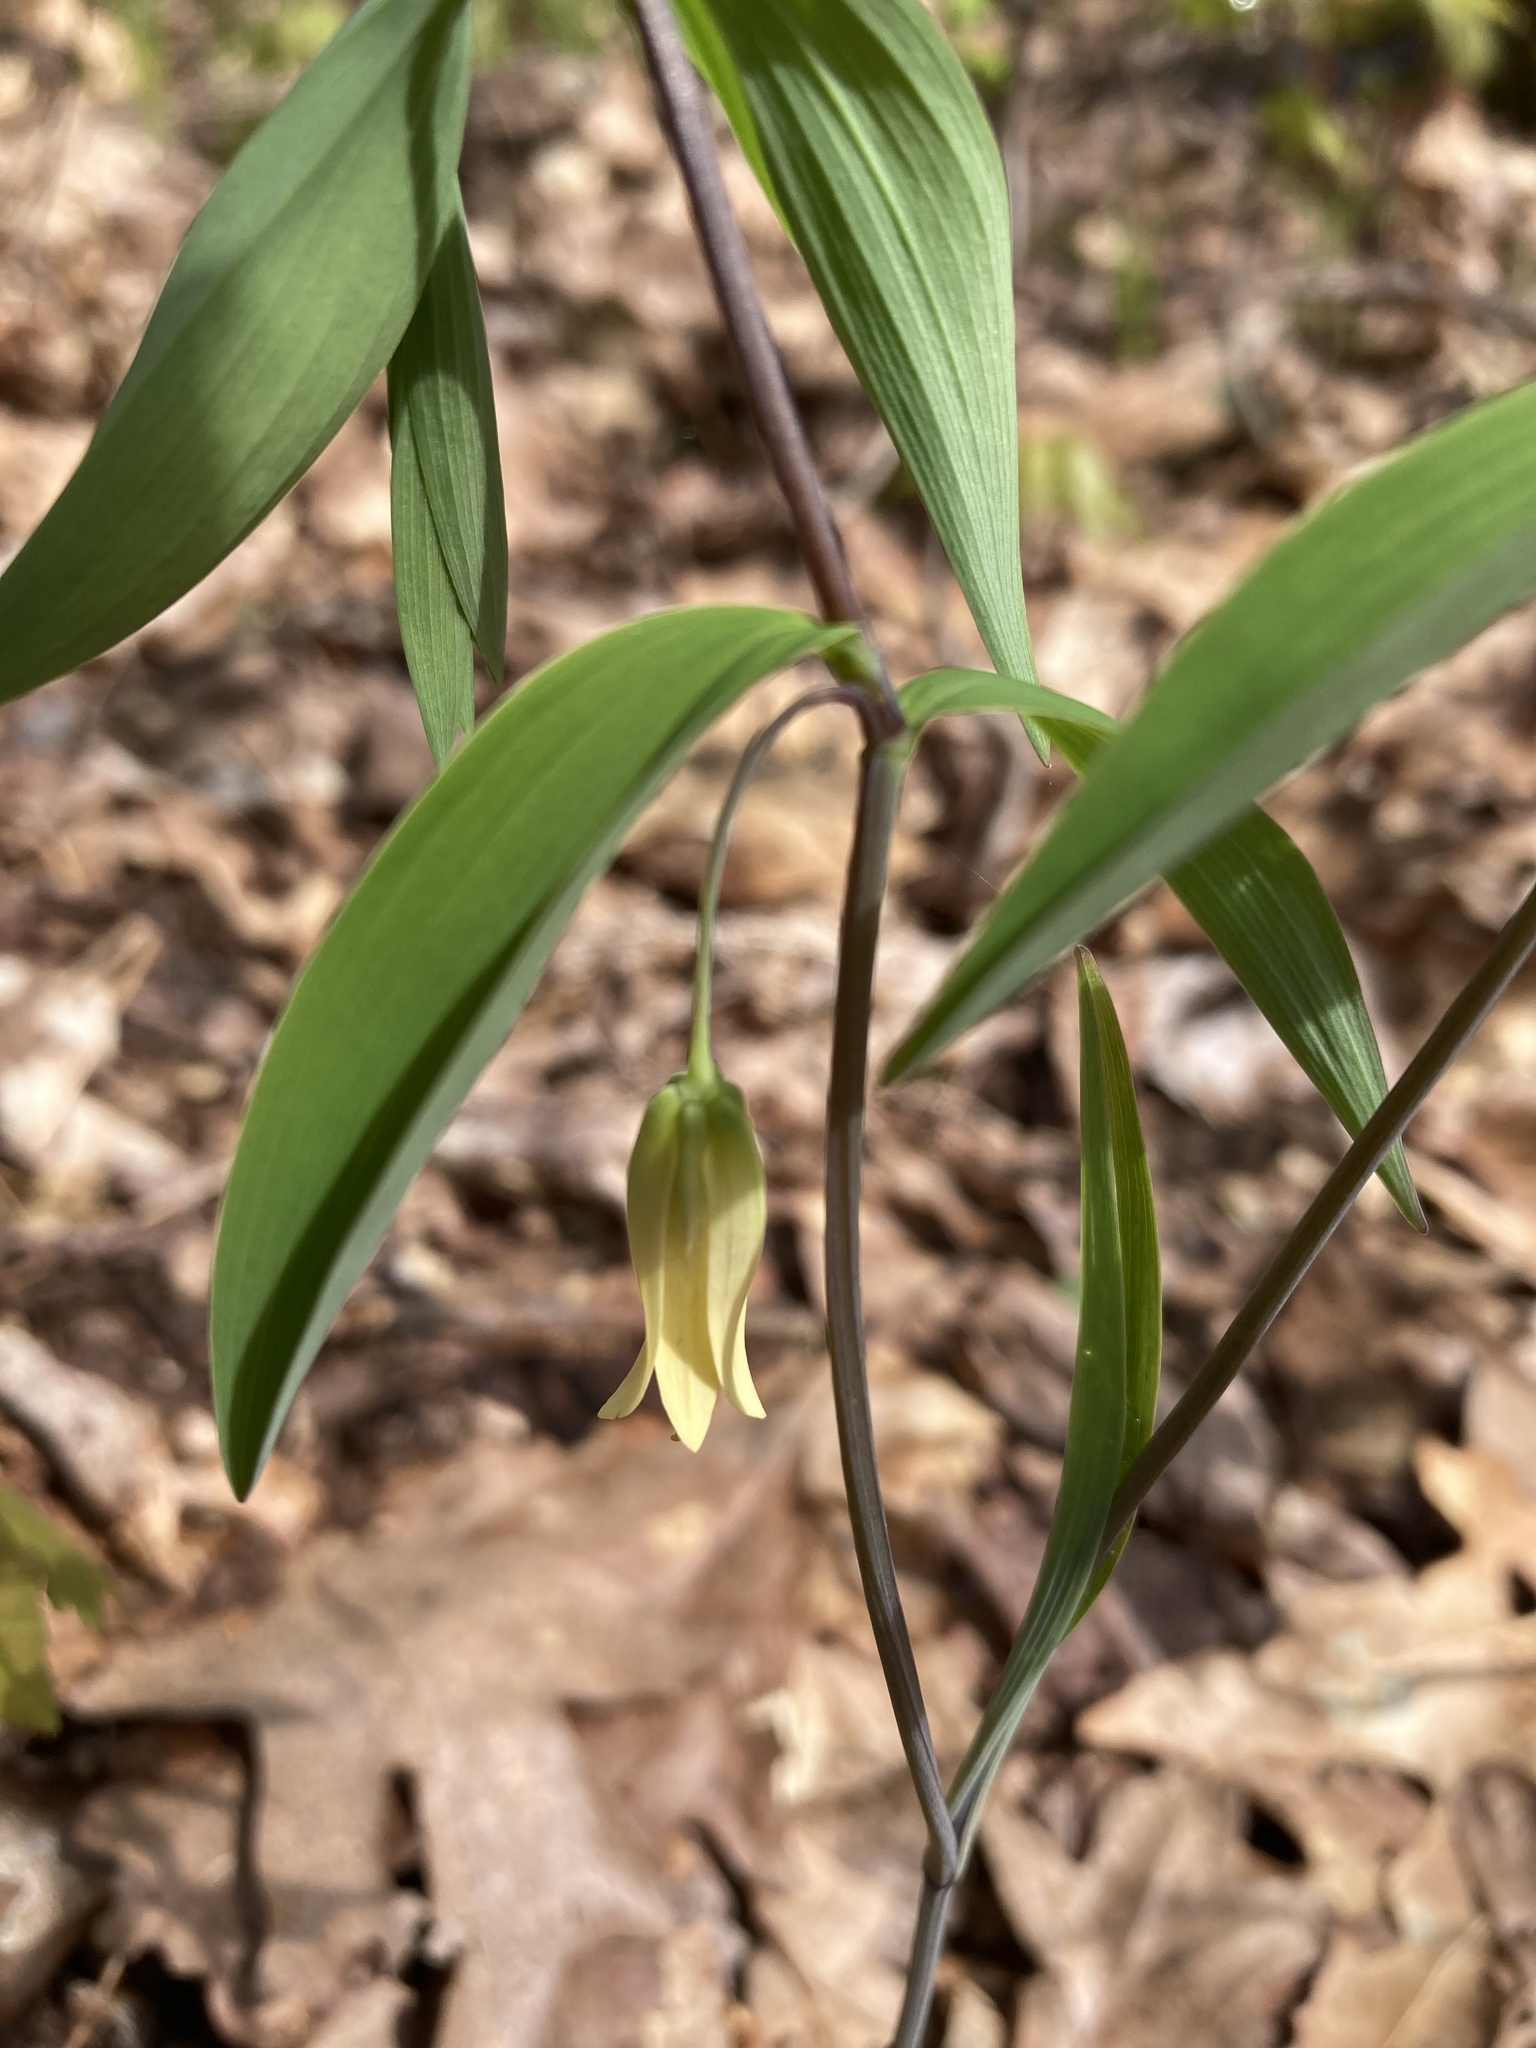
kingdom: Plantae
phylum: Tracheophyta
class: Liliopsida
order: Liliales
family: Colchicaceae
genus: Uvularia
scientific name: Uvularia sessilifolia
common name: Straw-lily
